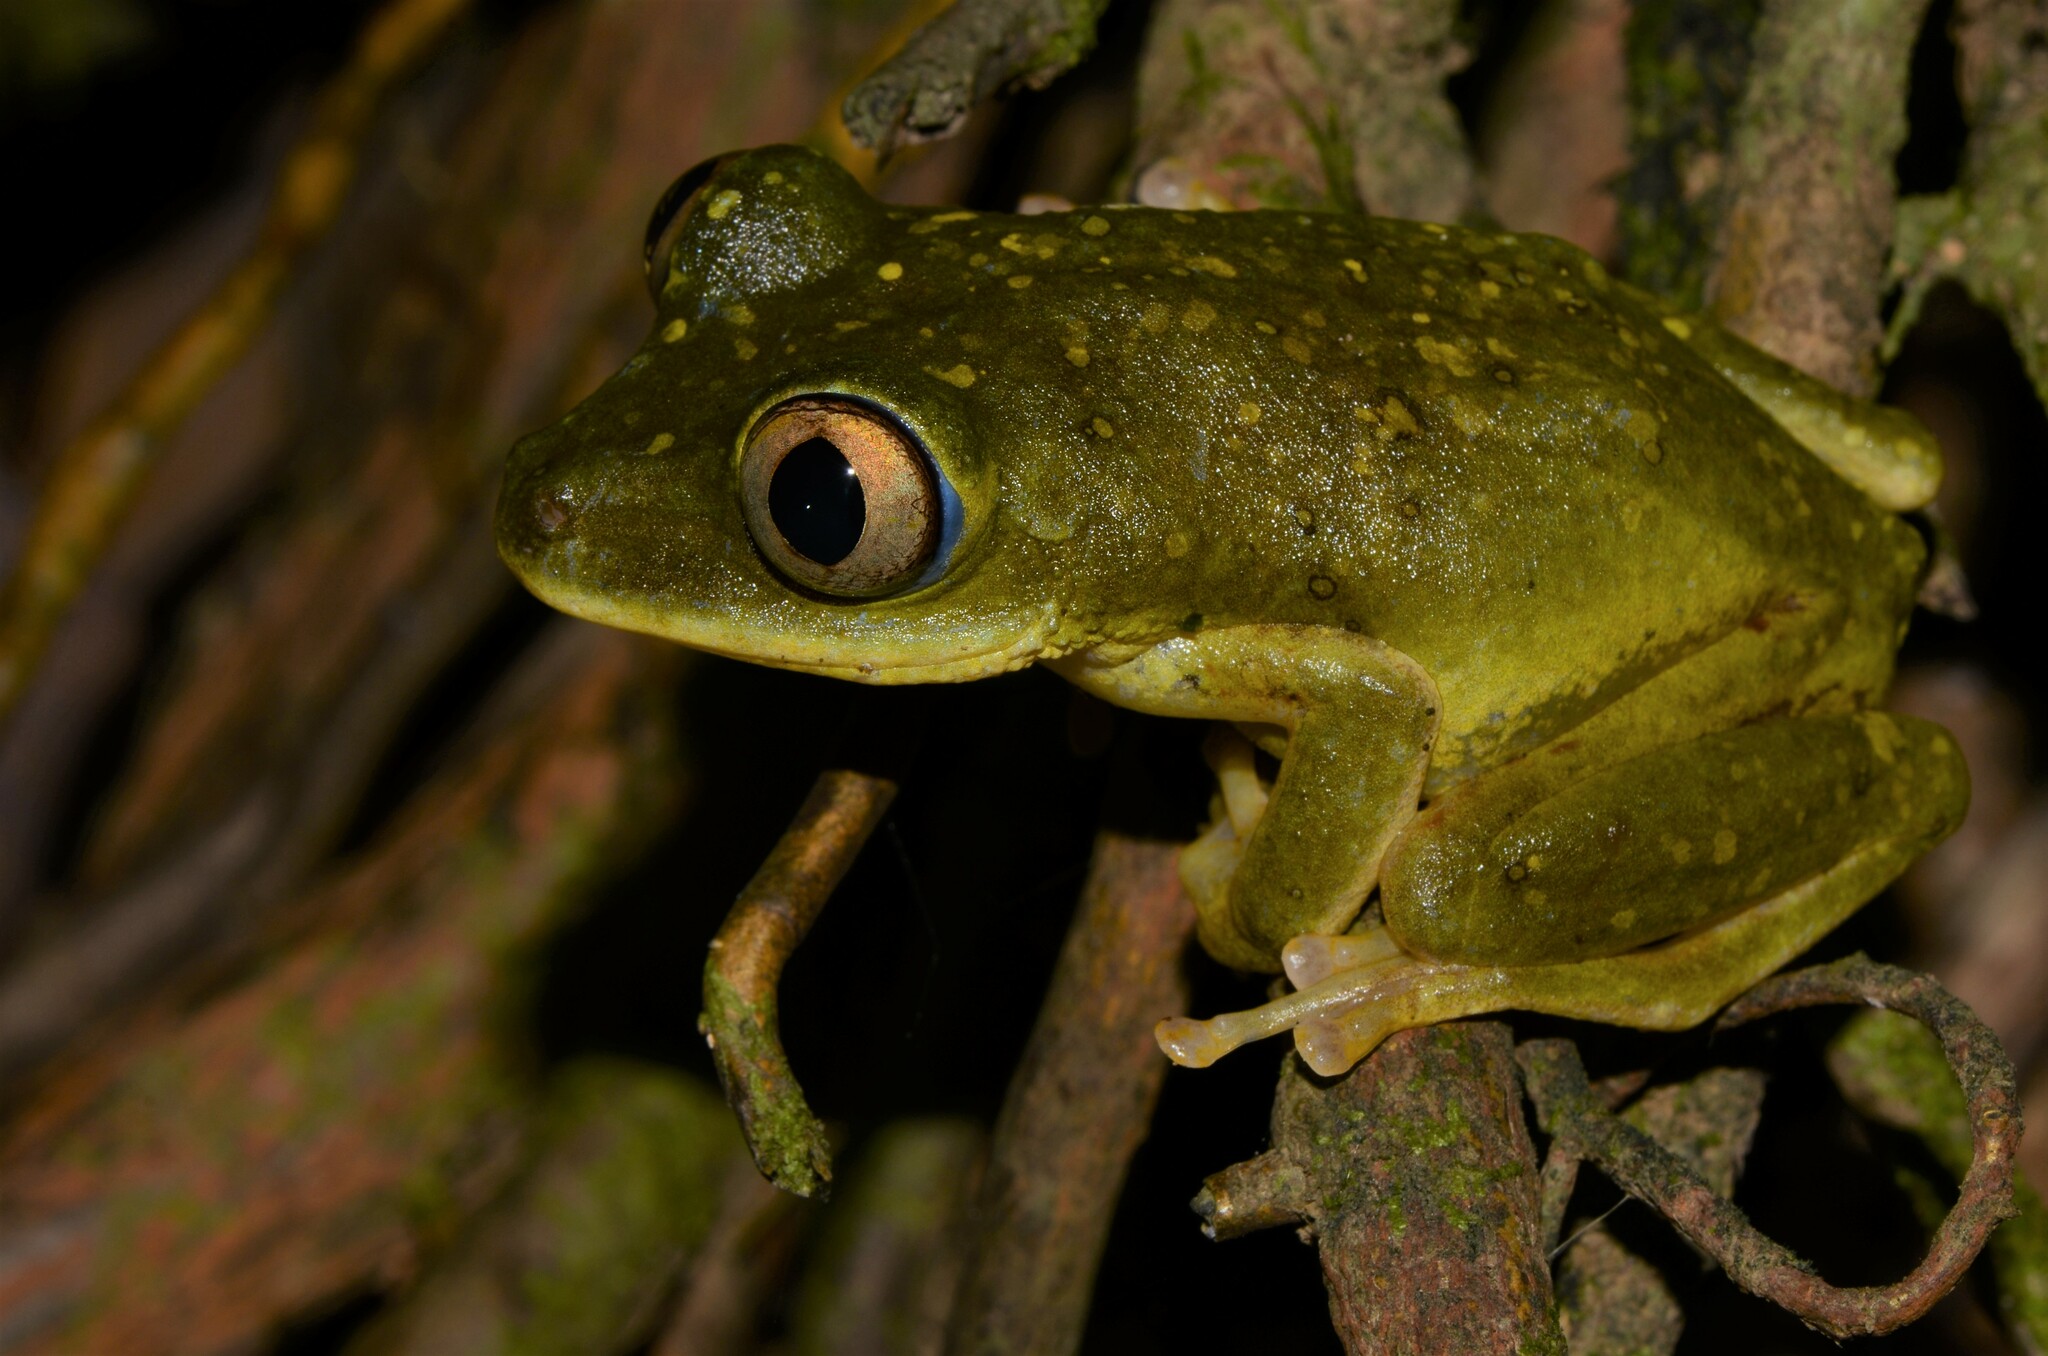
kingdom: Animalia
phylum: Chordata
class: Amphibia
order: Anura
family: Hyperoliidae
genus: Tachycnemis
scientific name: Tachycnemis seychellensis
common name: Seychelles treefrog
